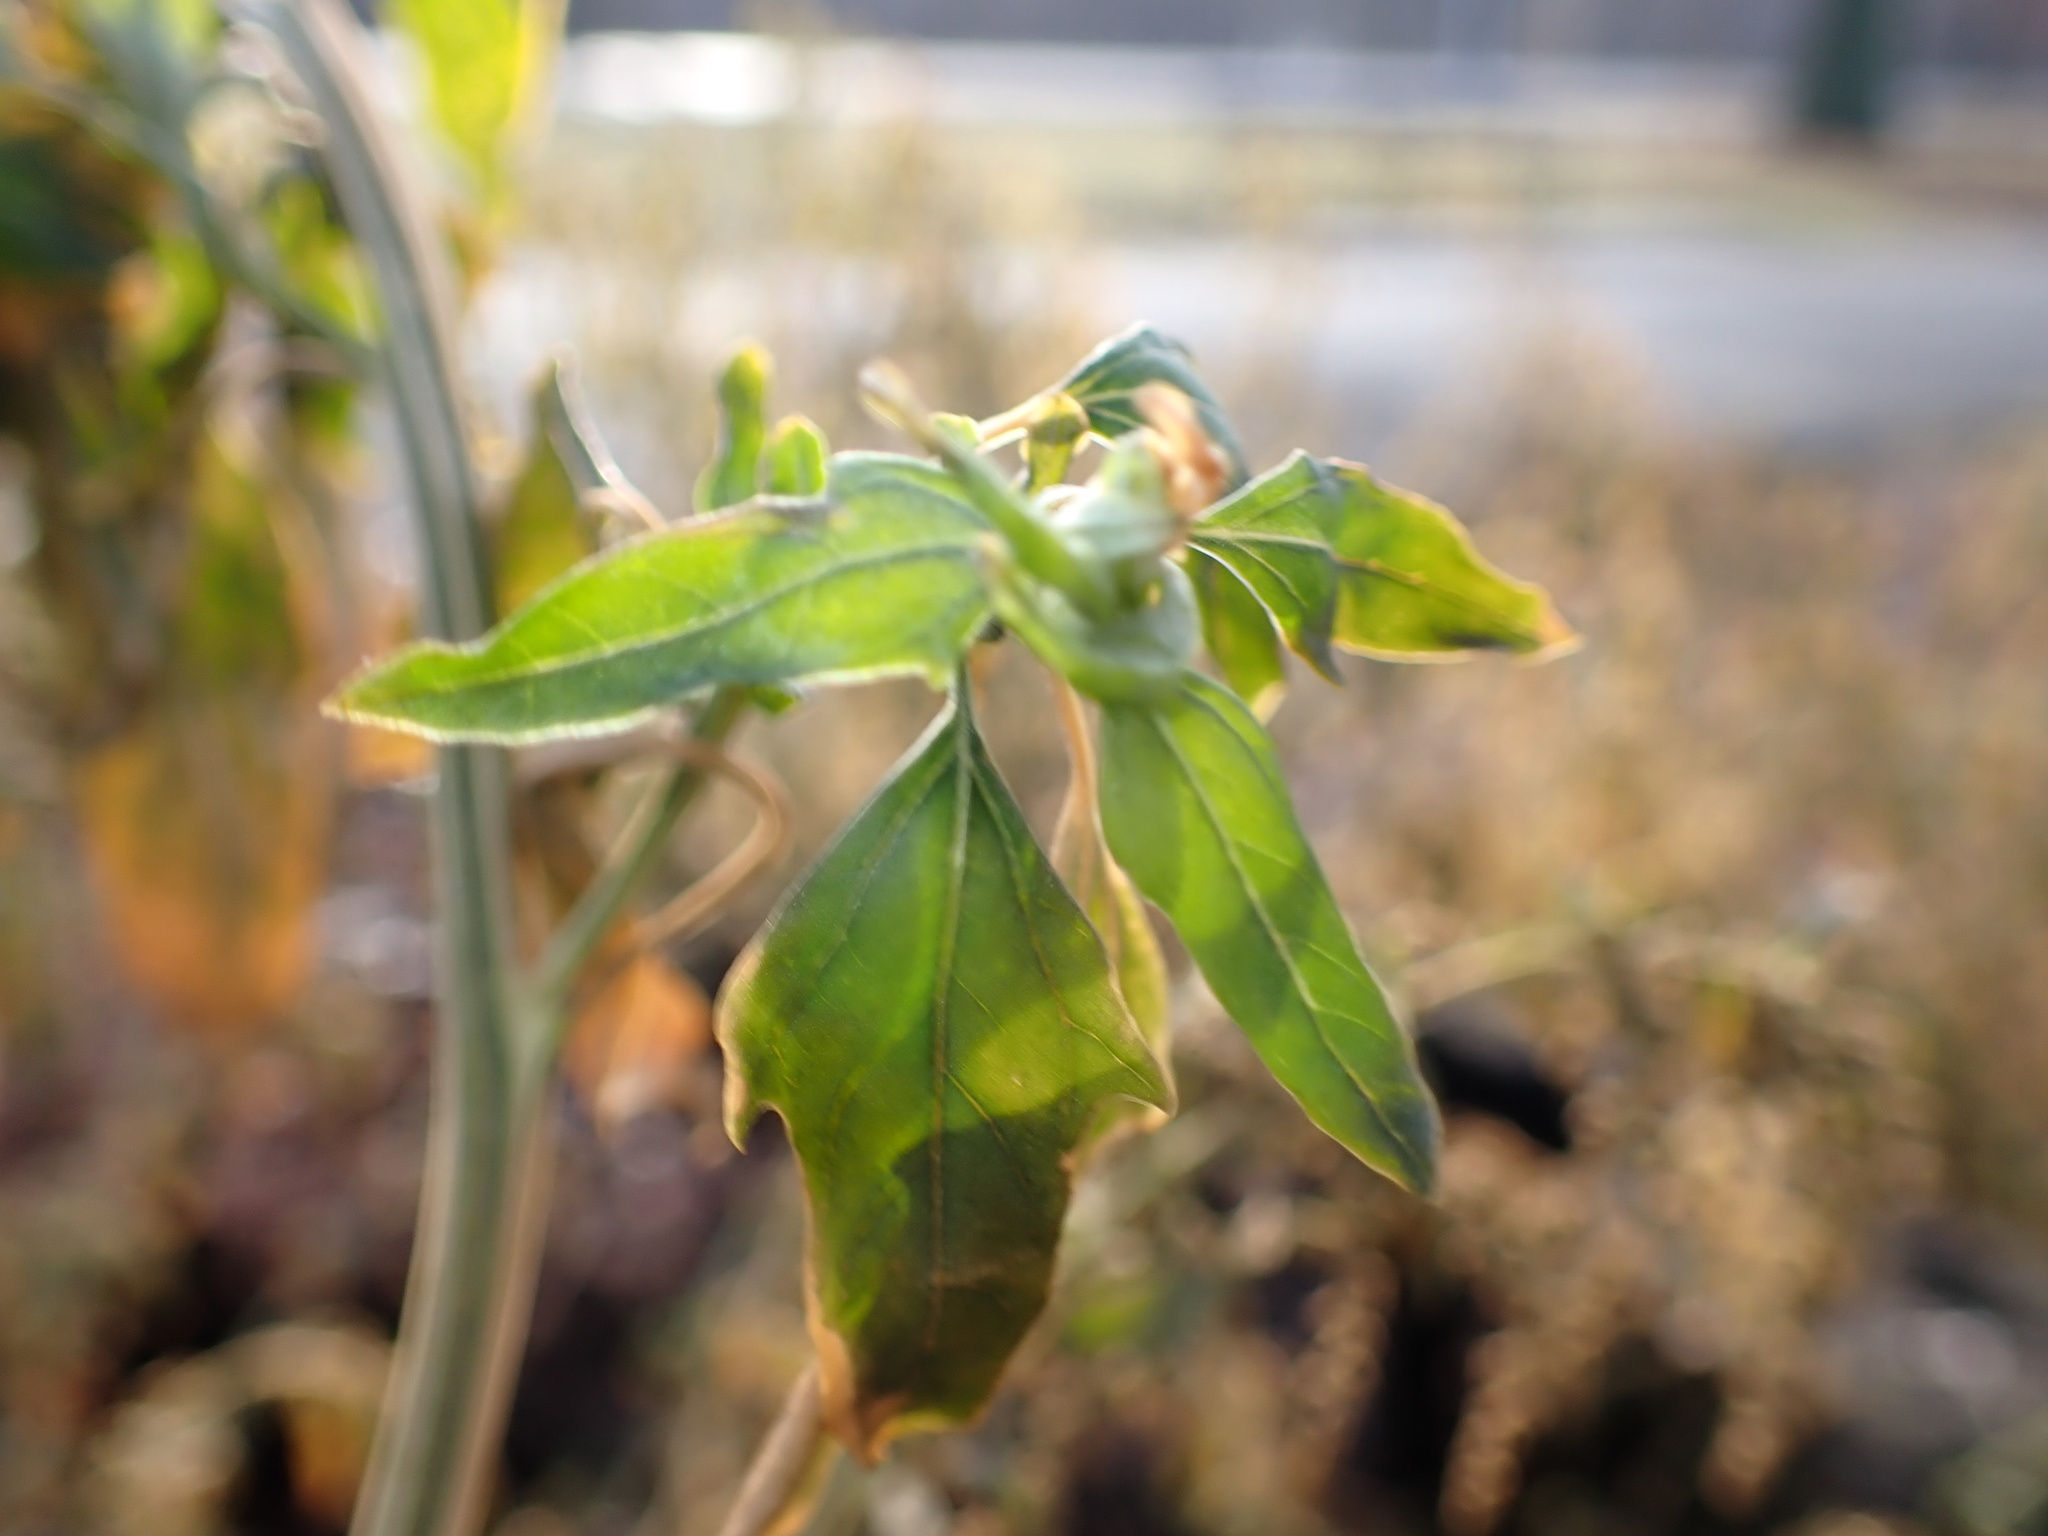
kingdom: Plantae
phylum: Tracheophyta
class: Magnoliopsida
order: Caryophyllales
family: Amaranthaceae
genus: Chenopodium
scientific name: Chenopodium album
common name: Fat-hen
